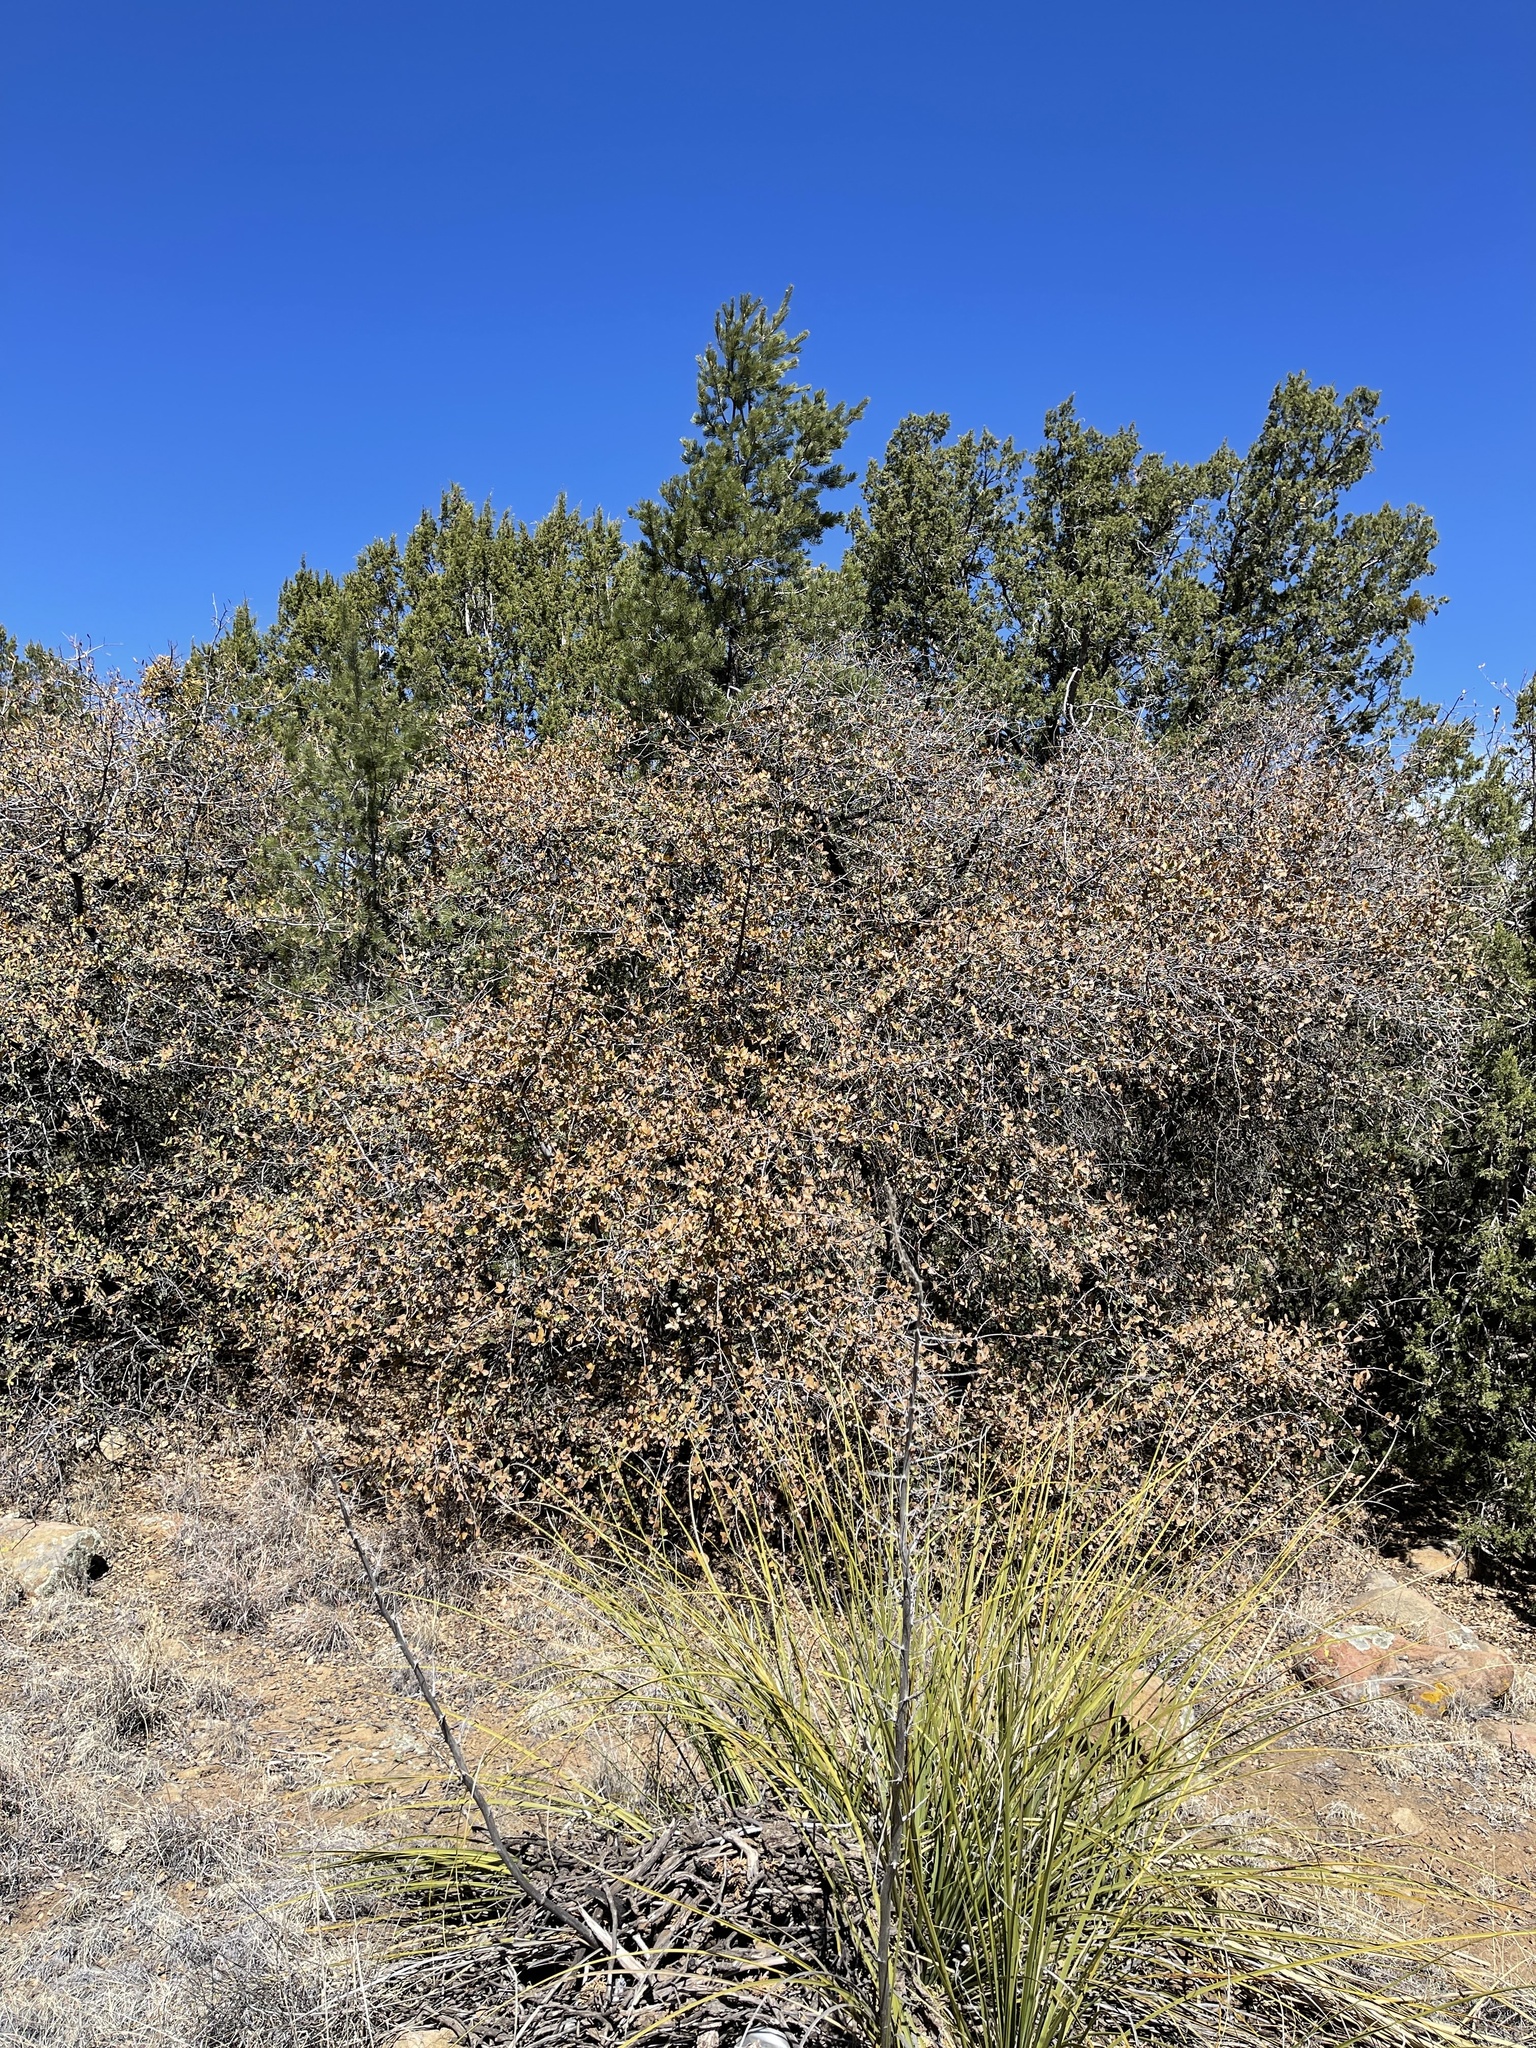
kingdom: Plantae
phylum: Tracheophyta
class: Magnoliopsida
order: Fagales
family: Fagaceae
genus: Quercus
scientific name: Quercus grisea
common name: Gray oak
